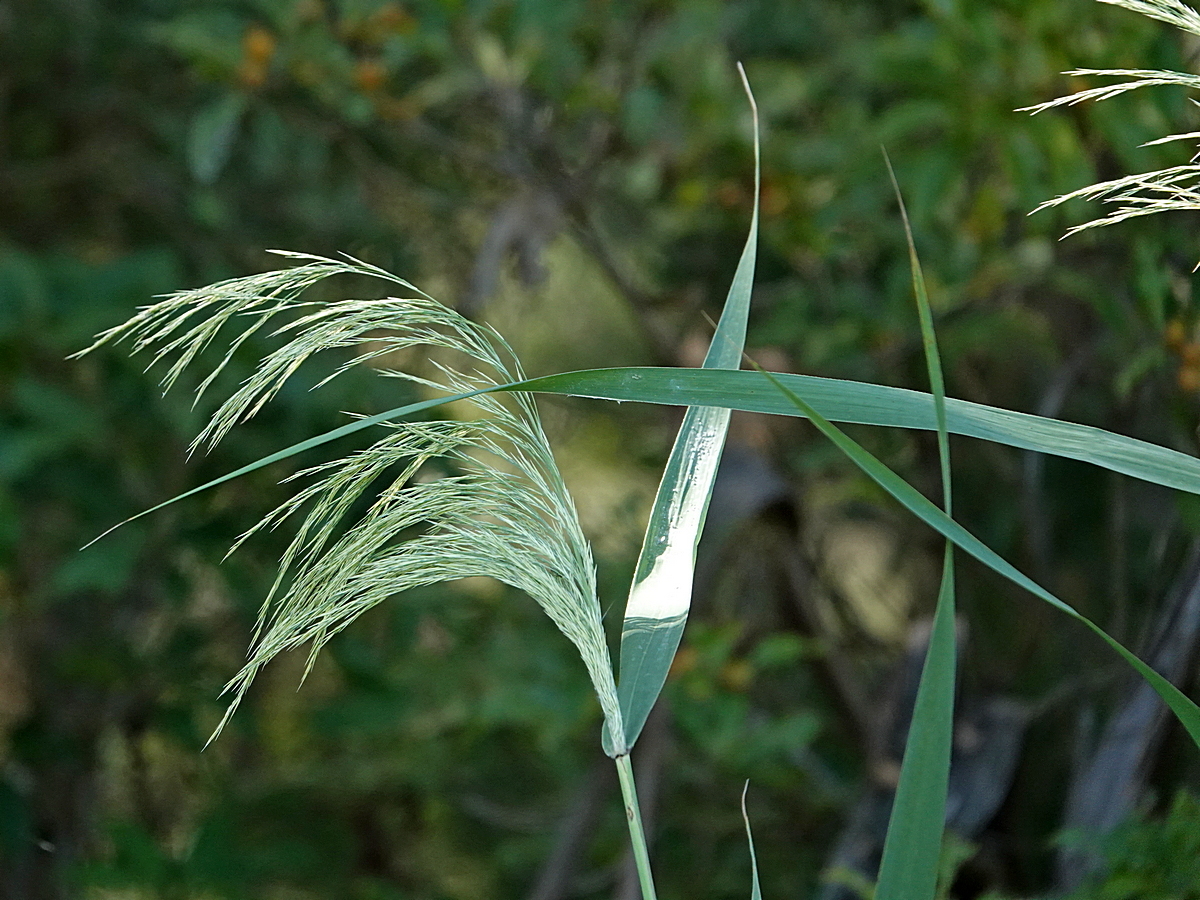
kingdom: Plantae
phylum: Tracheophyta
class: Liliopsida
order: Poales
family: Poaceae
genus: Phragmites
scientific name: Phragmites australis
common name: Common reed
